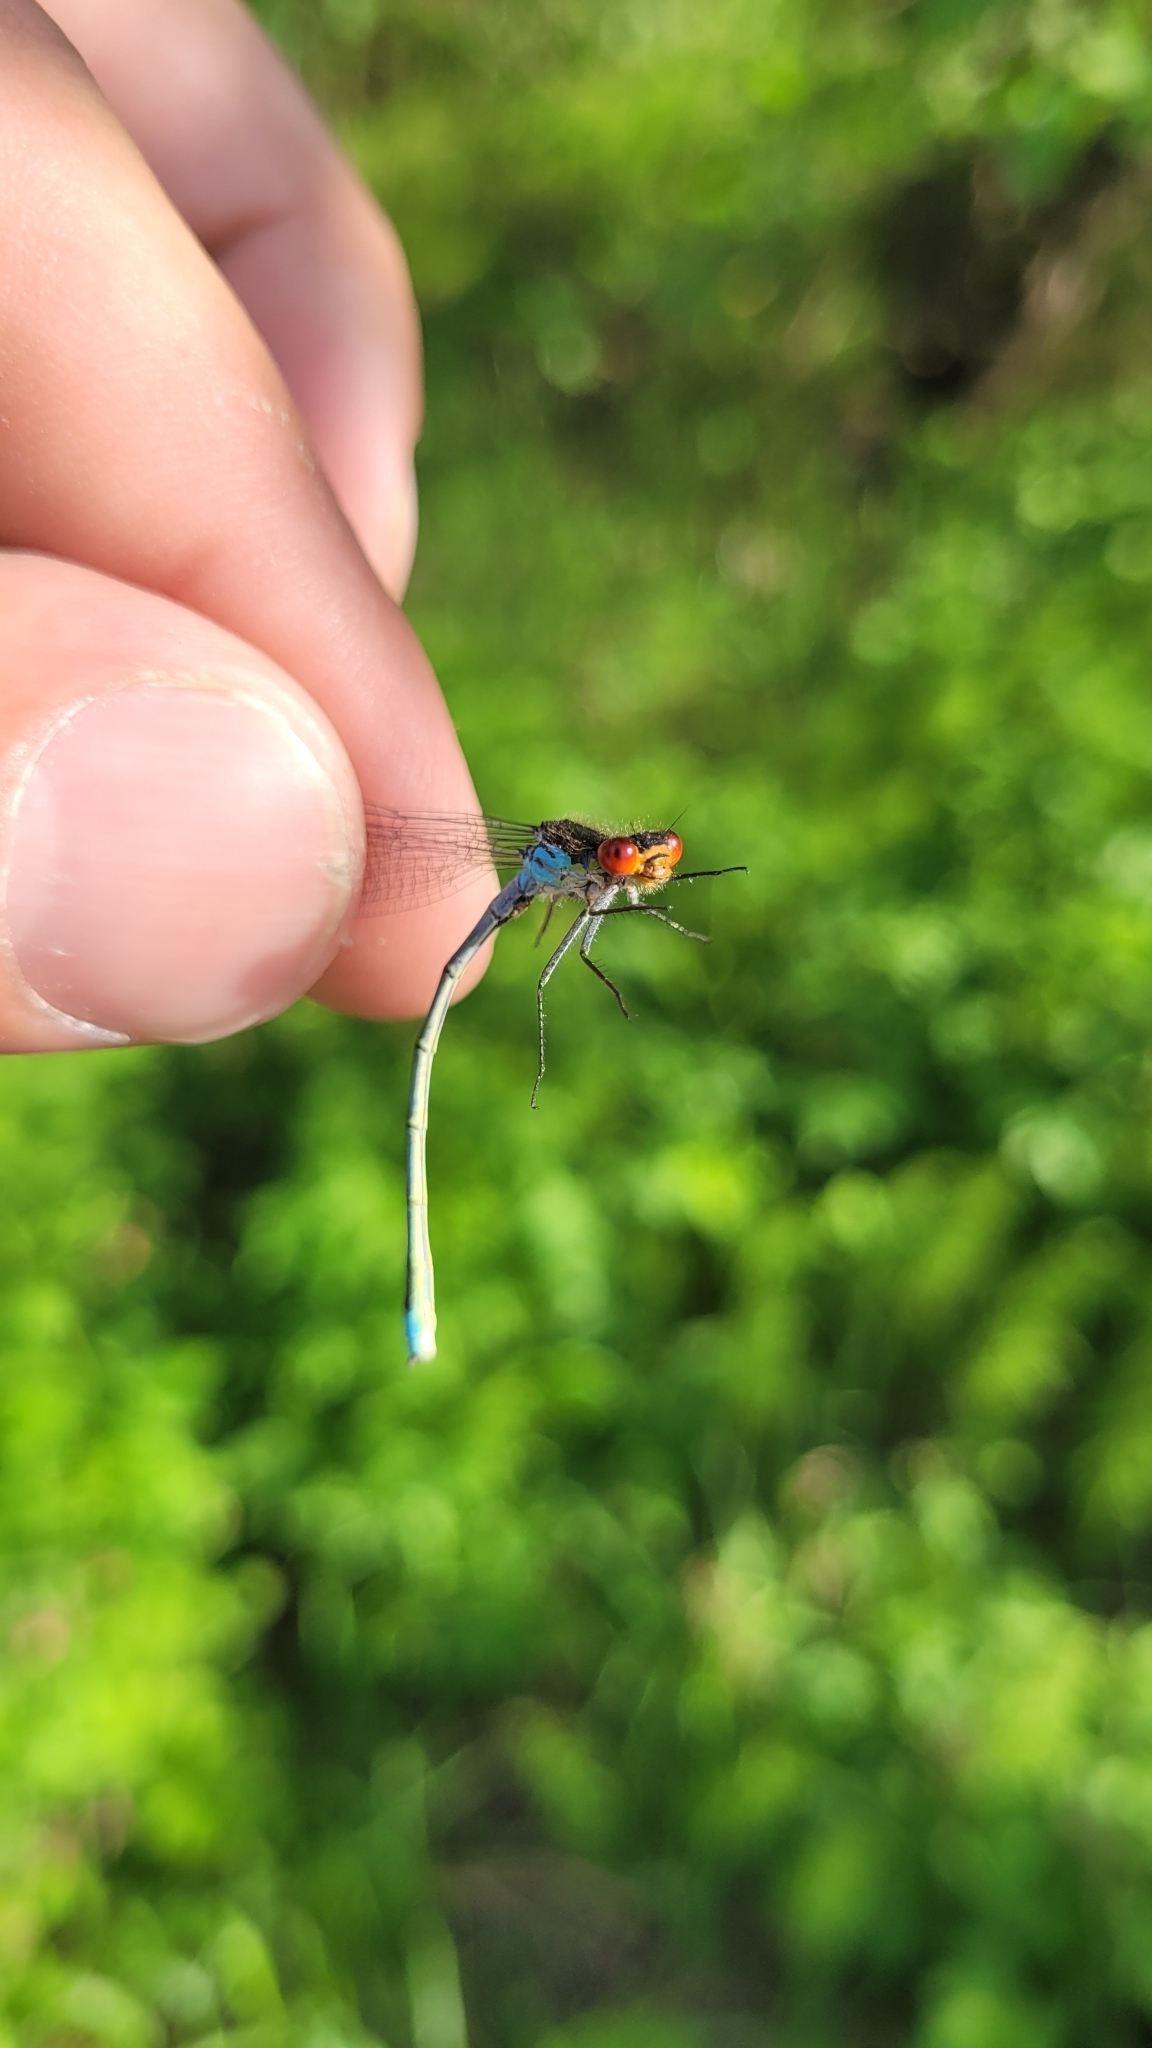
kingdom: Animalia
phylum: Arthropoda
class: Insecta
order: Odonata
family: Coenagrionidae
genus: Erythromma
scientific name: Erythromma najas
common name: Red-eyed damselfly
